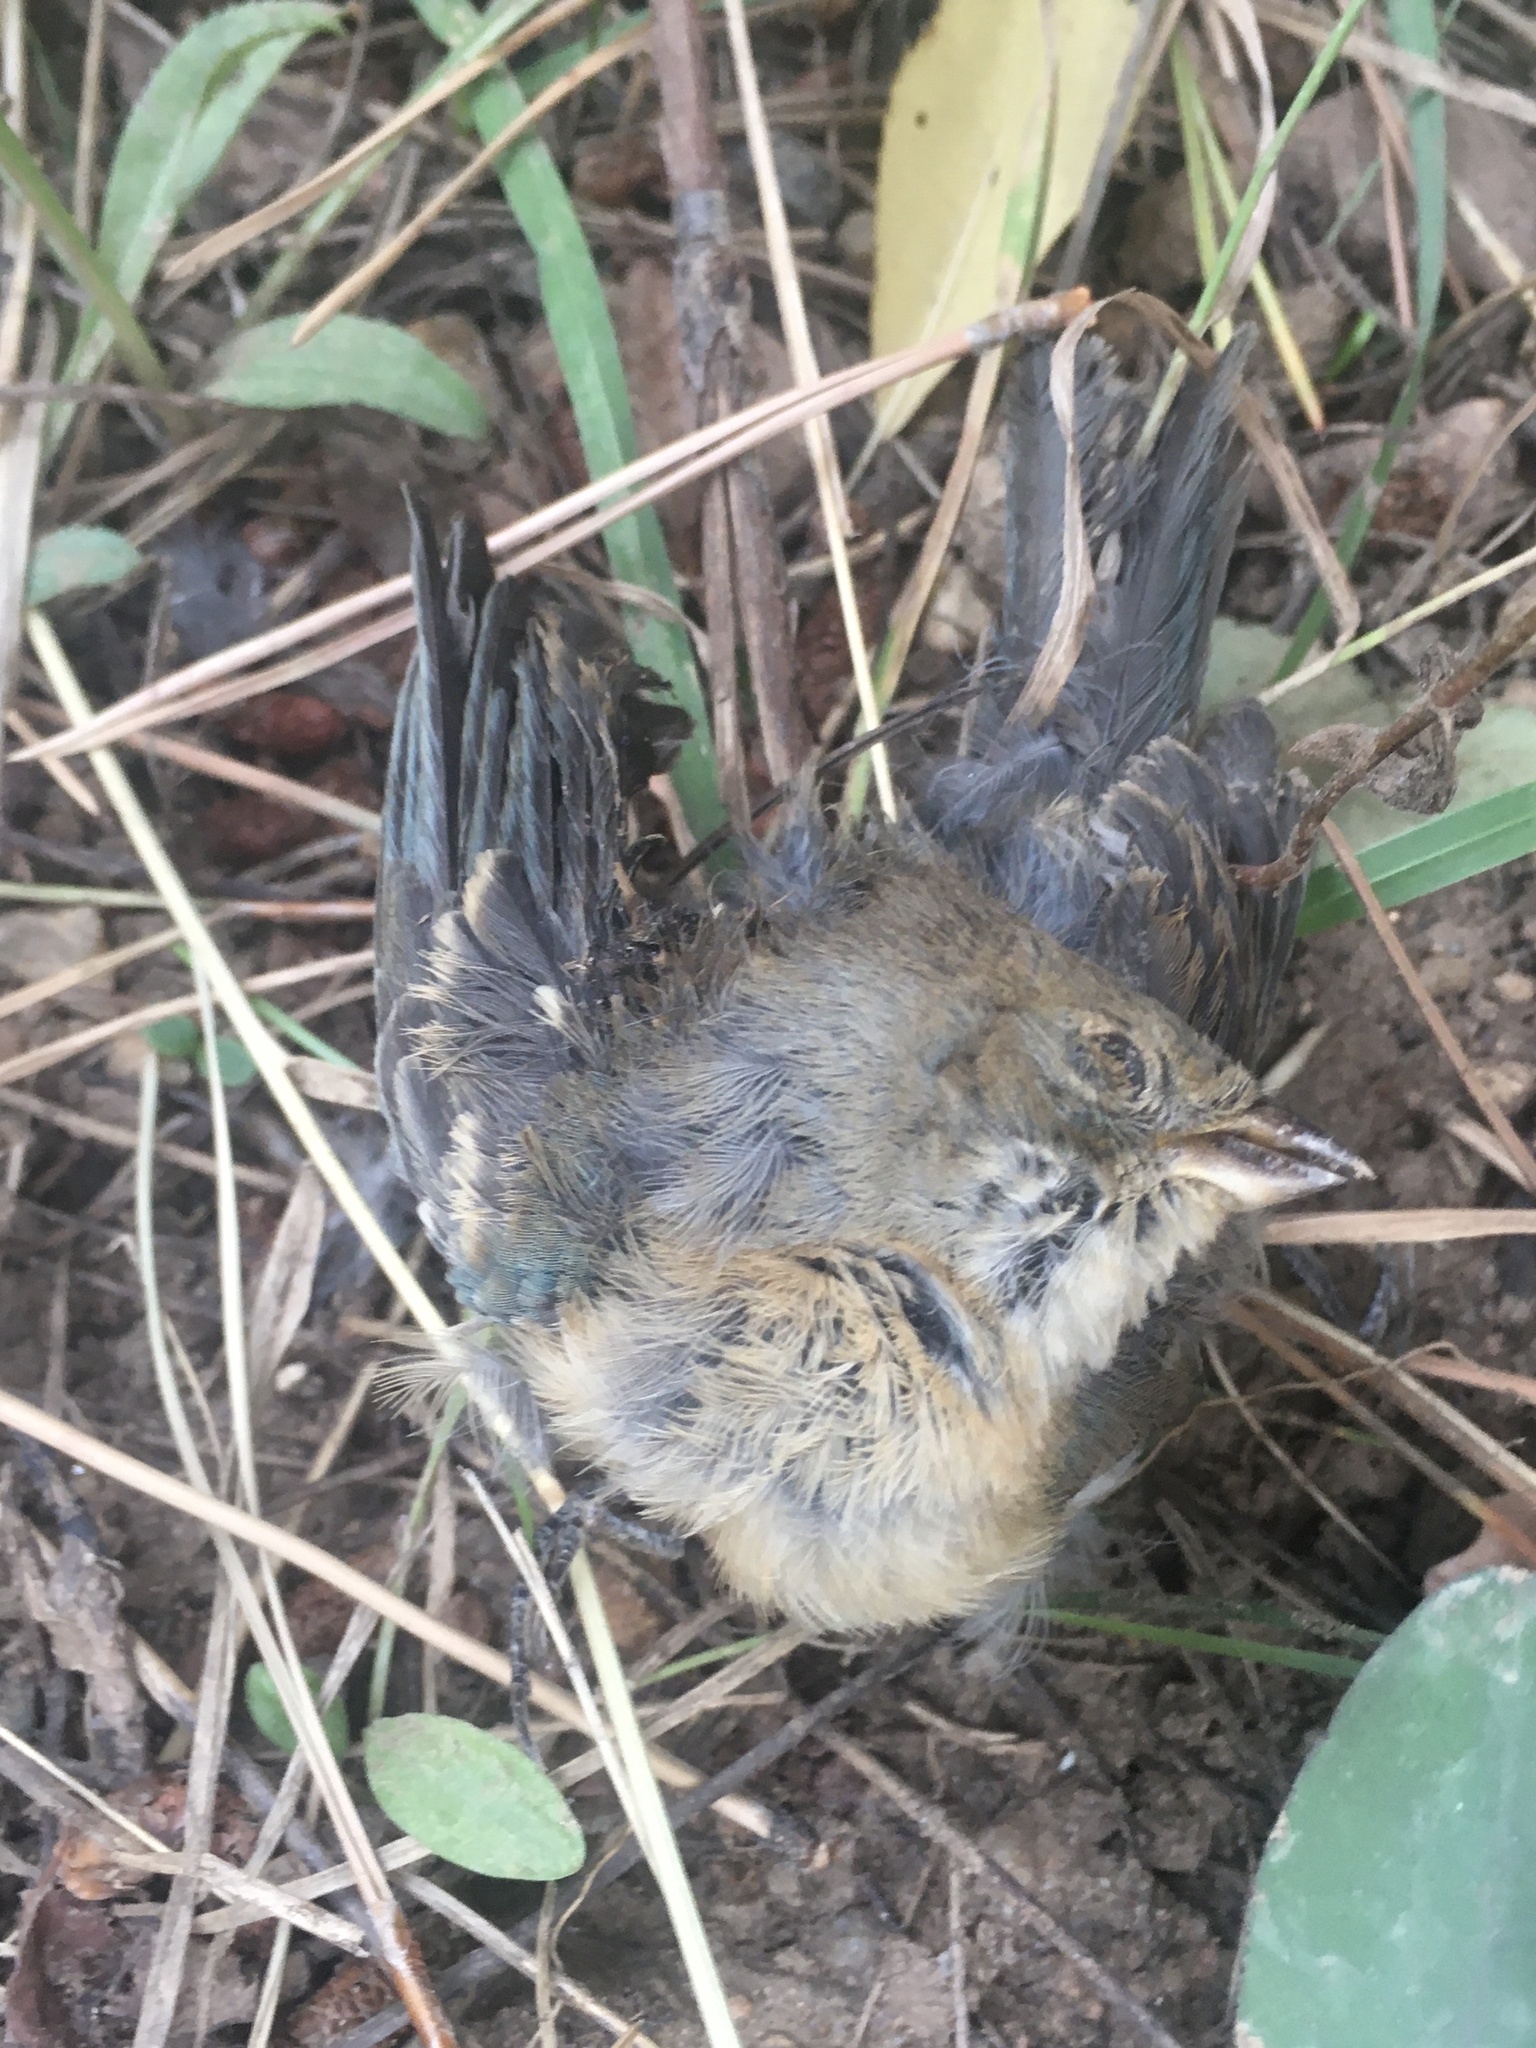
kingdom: Animalia
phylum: Chordata
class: Aves
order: Passeriformes
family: Cardinalidae
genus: Passerina
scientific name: Passerina amoena
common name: Lazuli bunting
